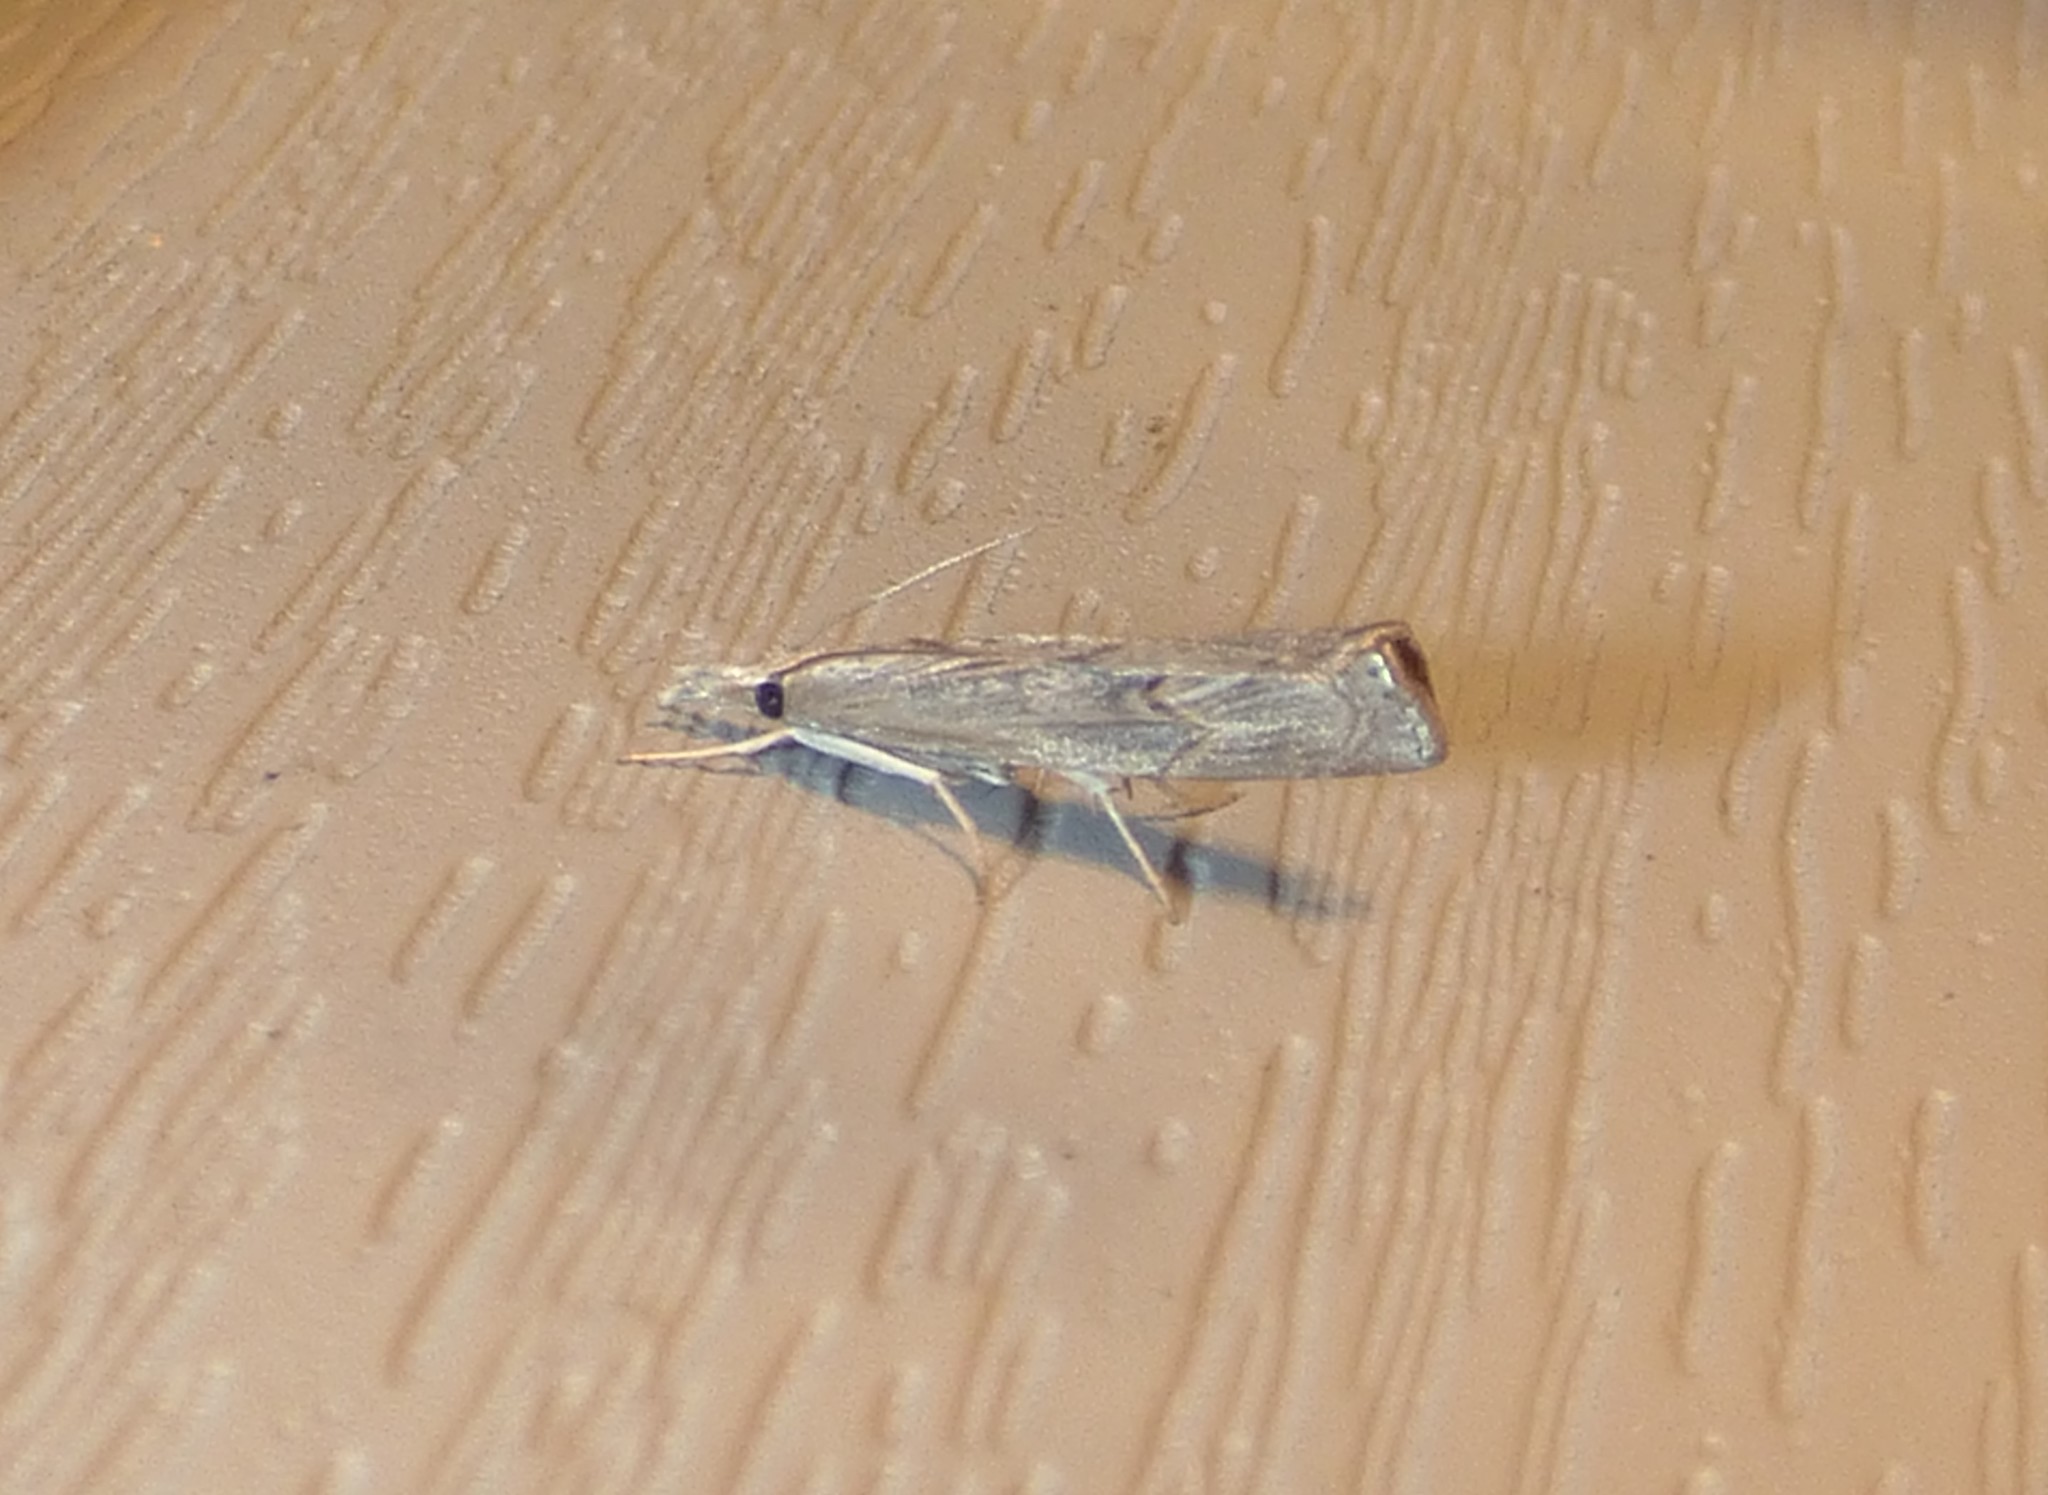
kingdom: Animalia
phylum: Arthropoda
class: Insecta
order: Lepidoptera
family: Crambidae
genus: Parapediasia
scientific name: Parapediasia teterellus
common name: Bluegrass webworm moth
